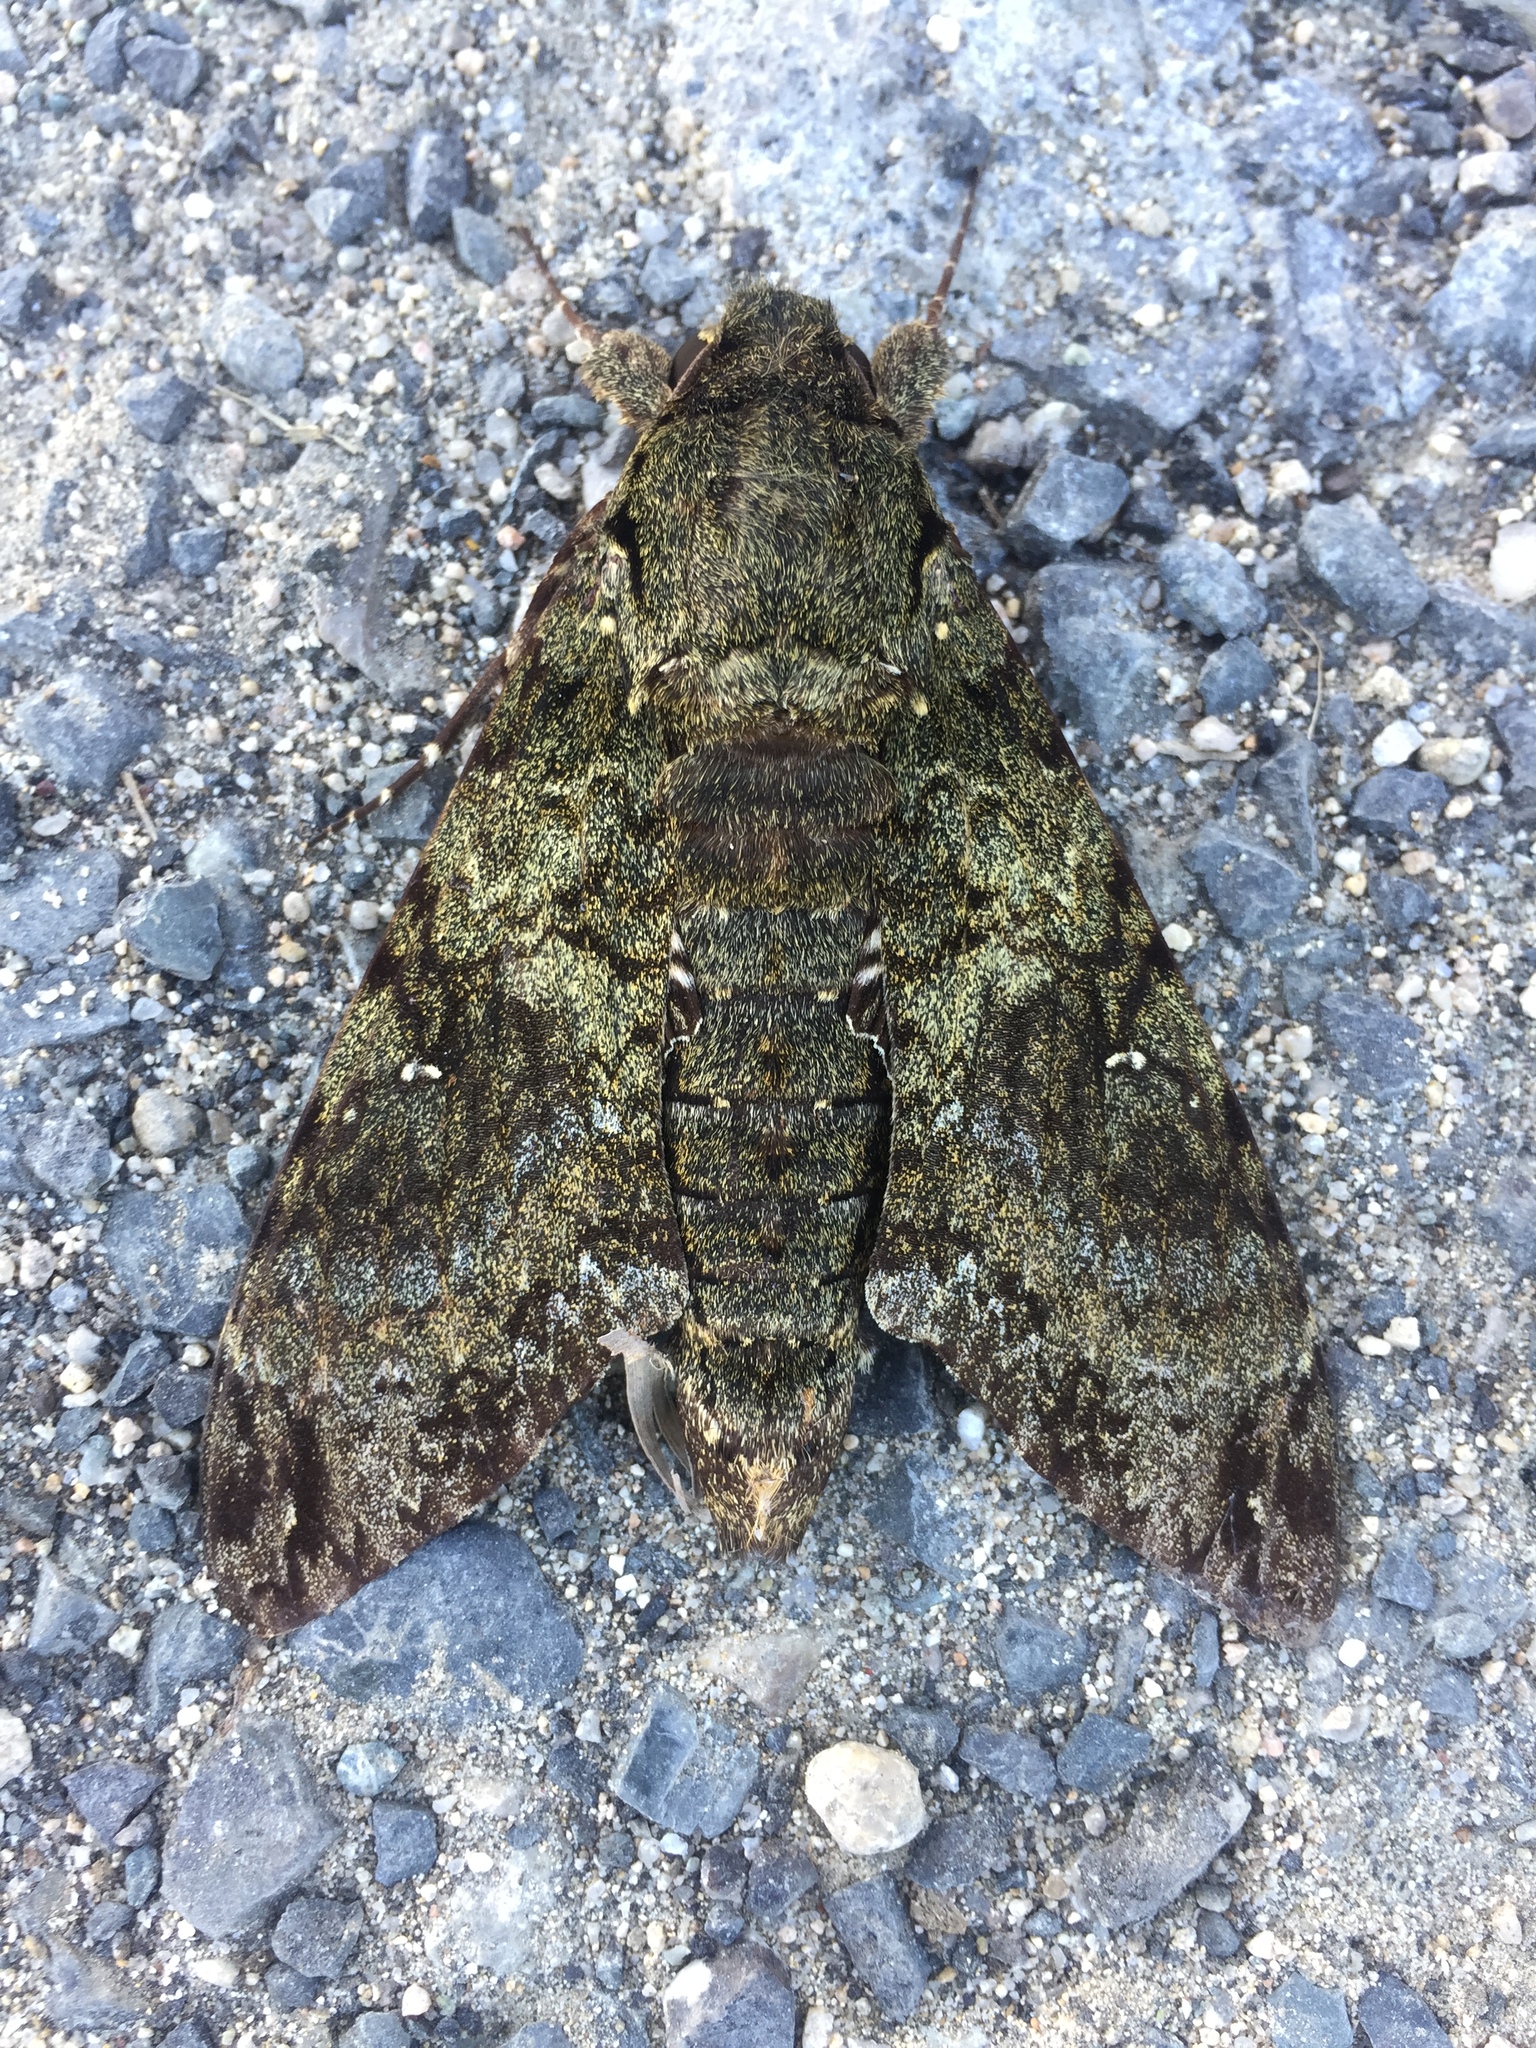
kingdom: Animalia
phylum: Arthropoda
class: Insecta
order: Lepidoptera
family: Sphingidae
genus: Cocytius
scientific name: Cocytius duponchel
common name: Duponchel's sphinx
